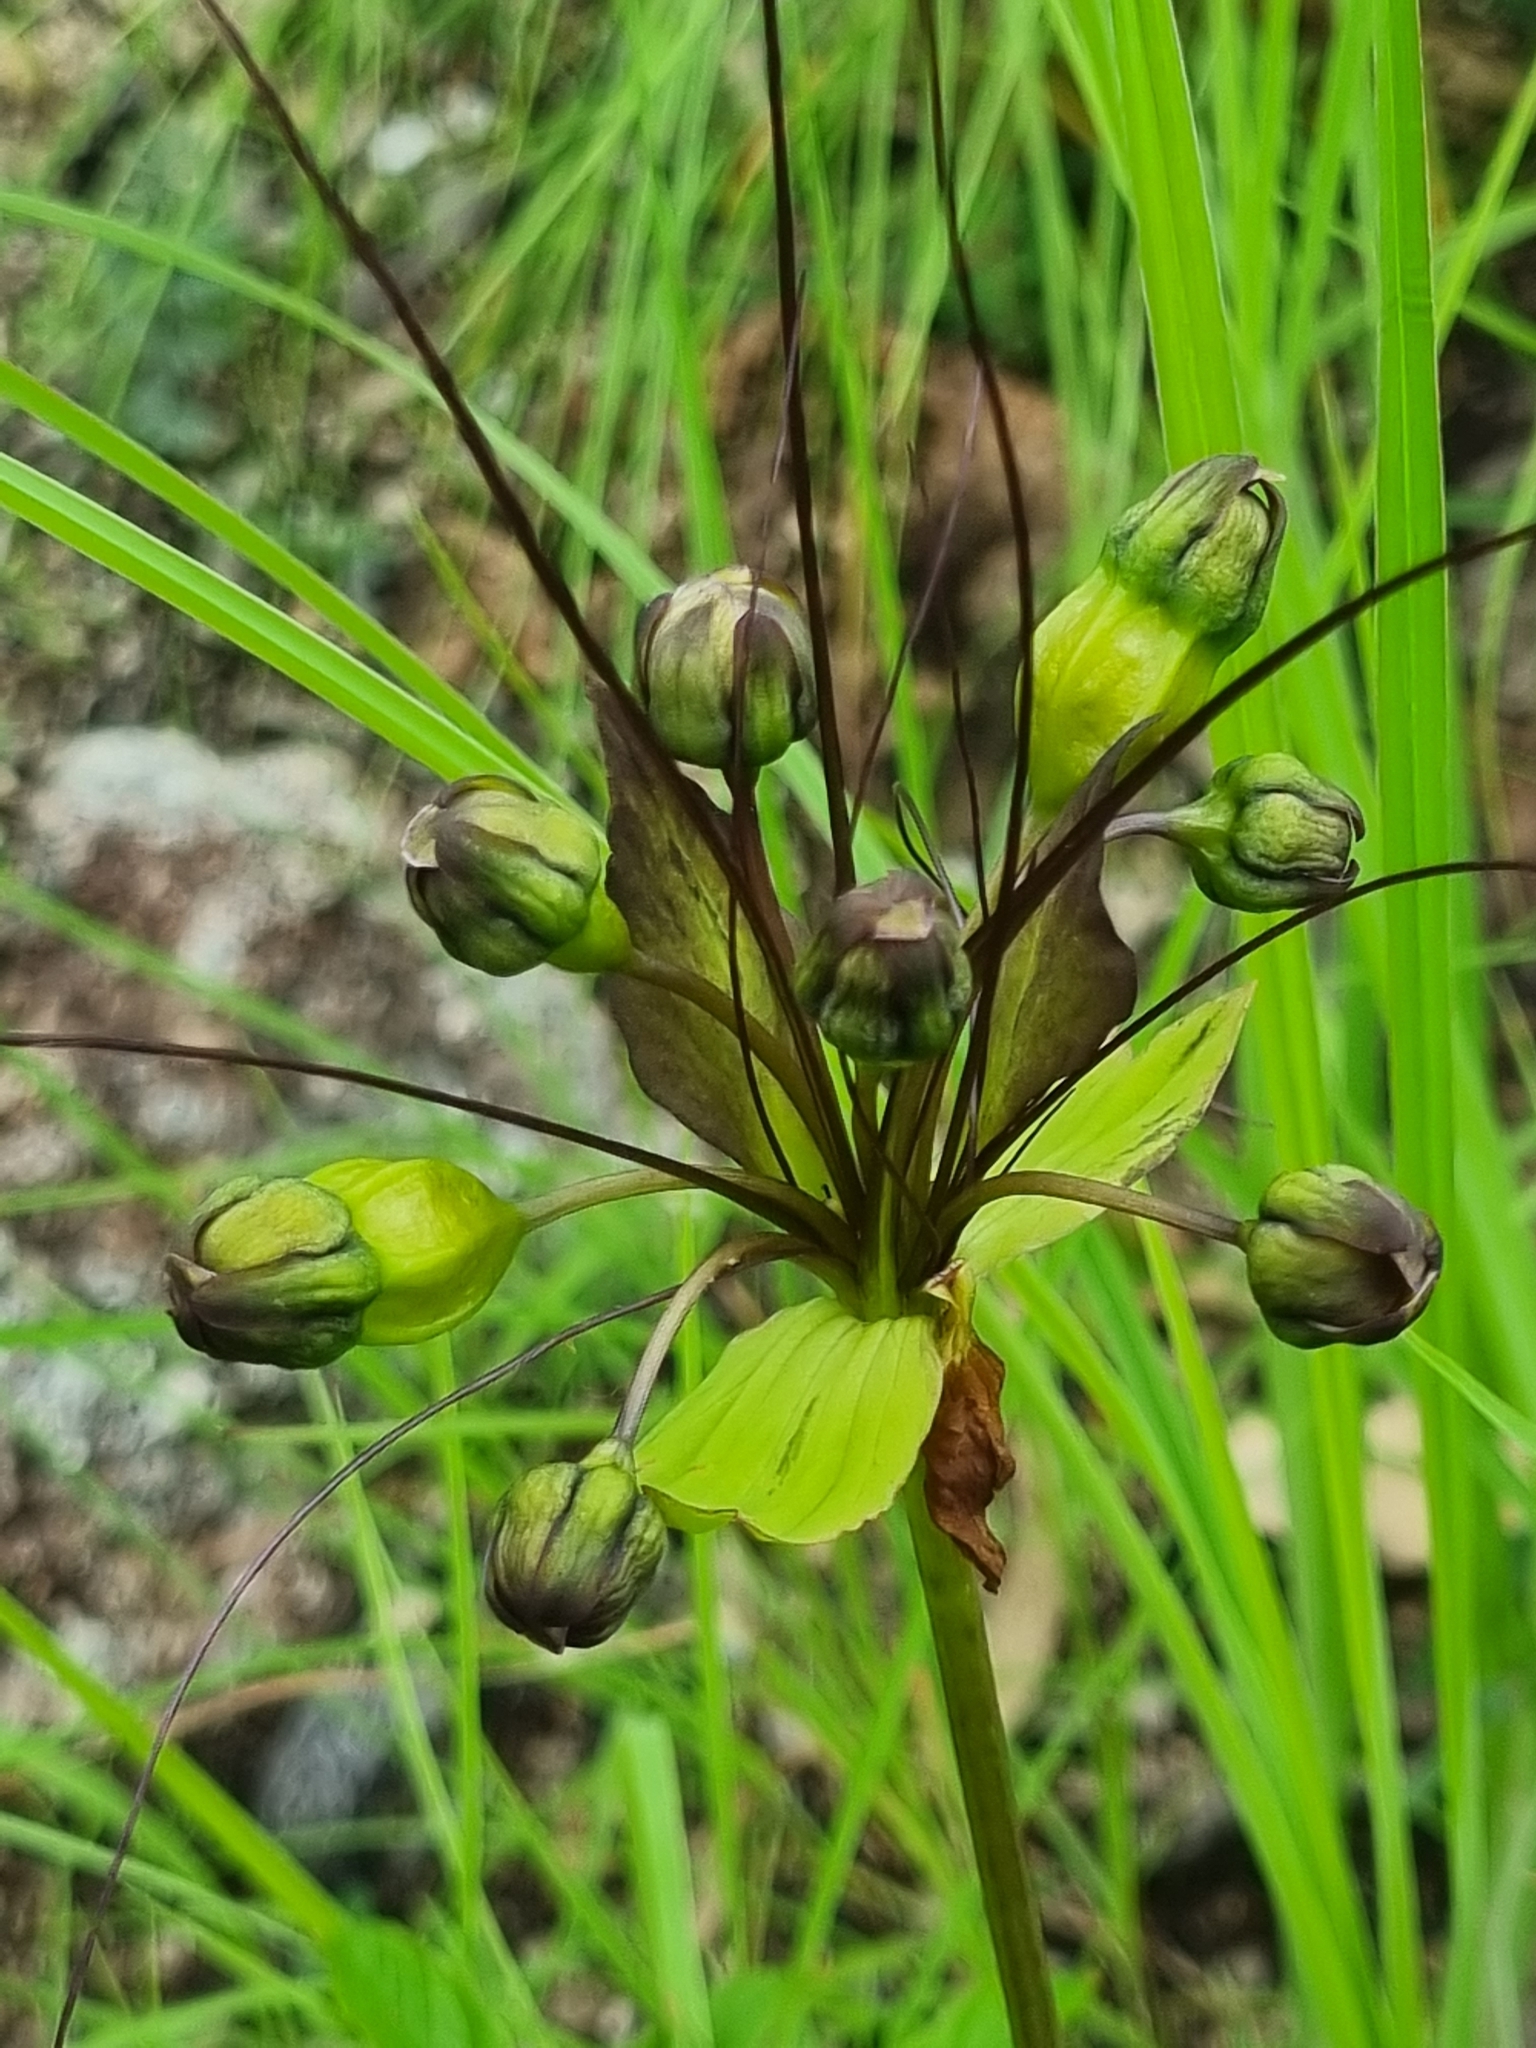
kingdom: Plantae
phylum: Tracheophyta
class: Liliopsida
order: Dioscoreales
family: Dioscoreaceae
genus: Tacca
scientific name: Tacca leontopetaloides
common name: Arrowroot
